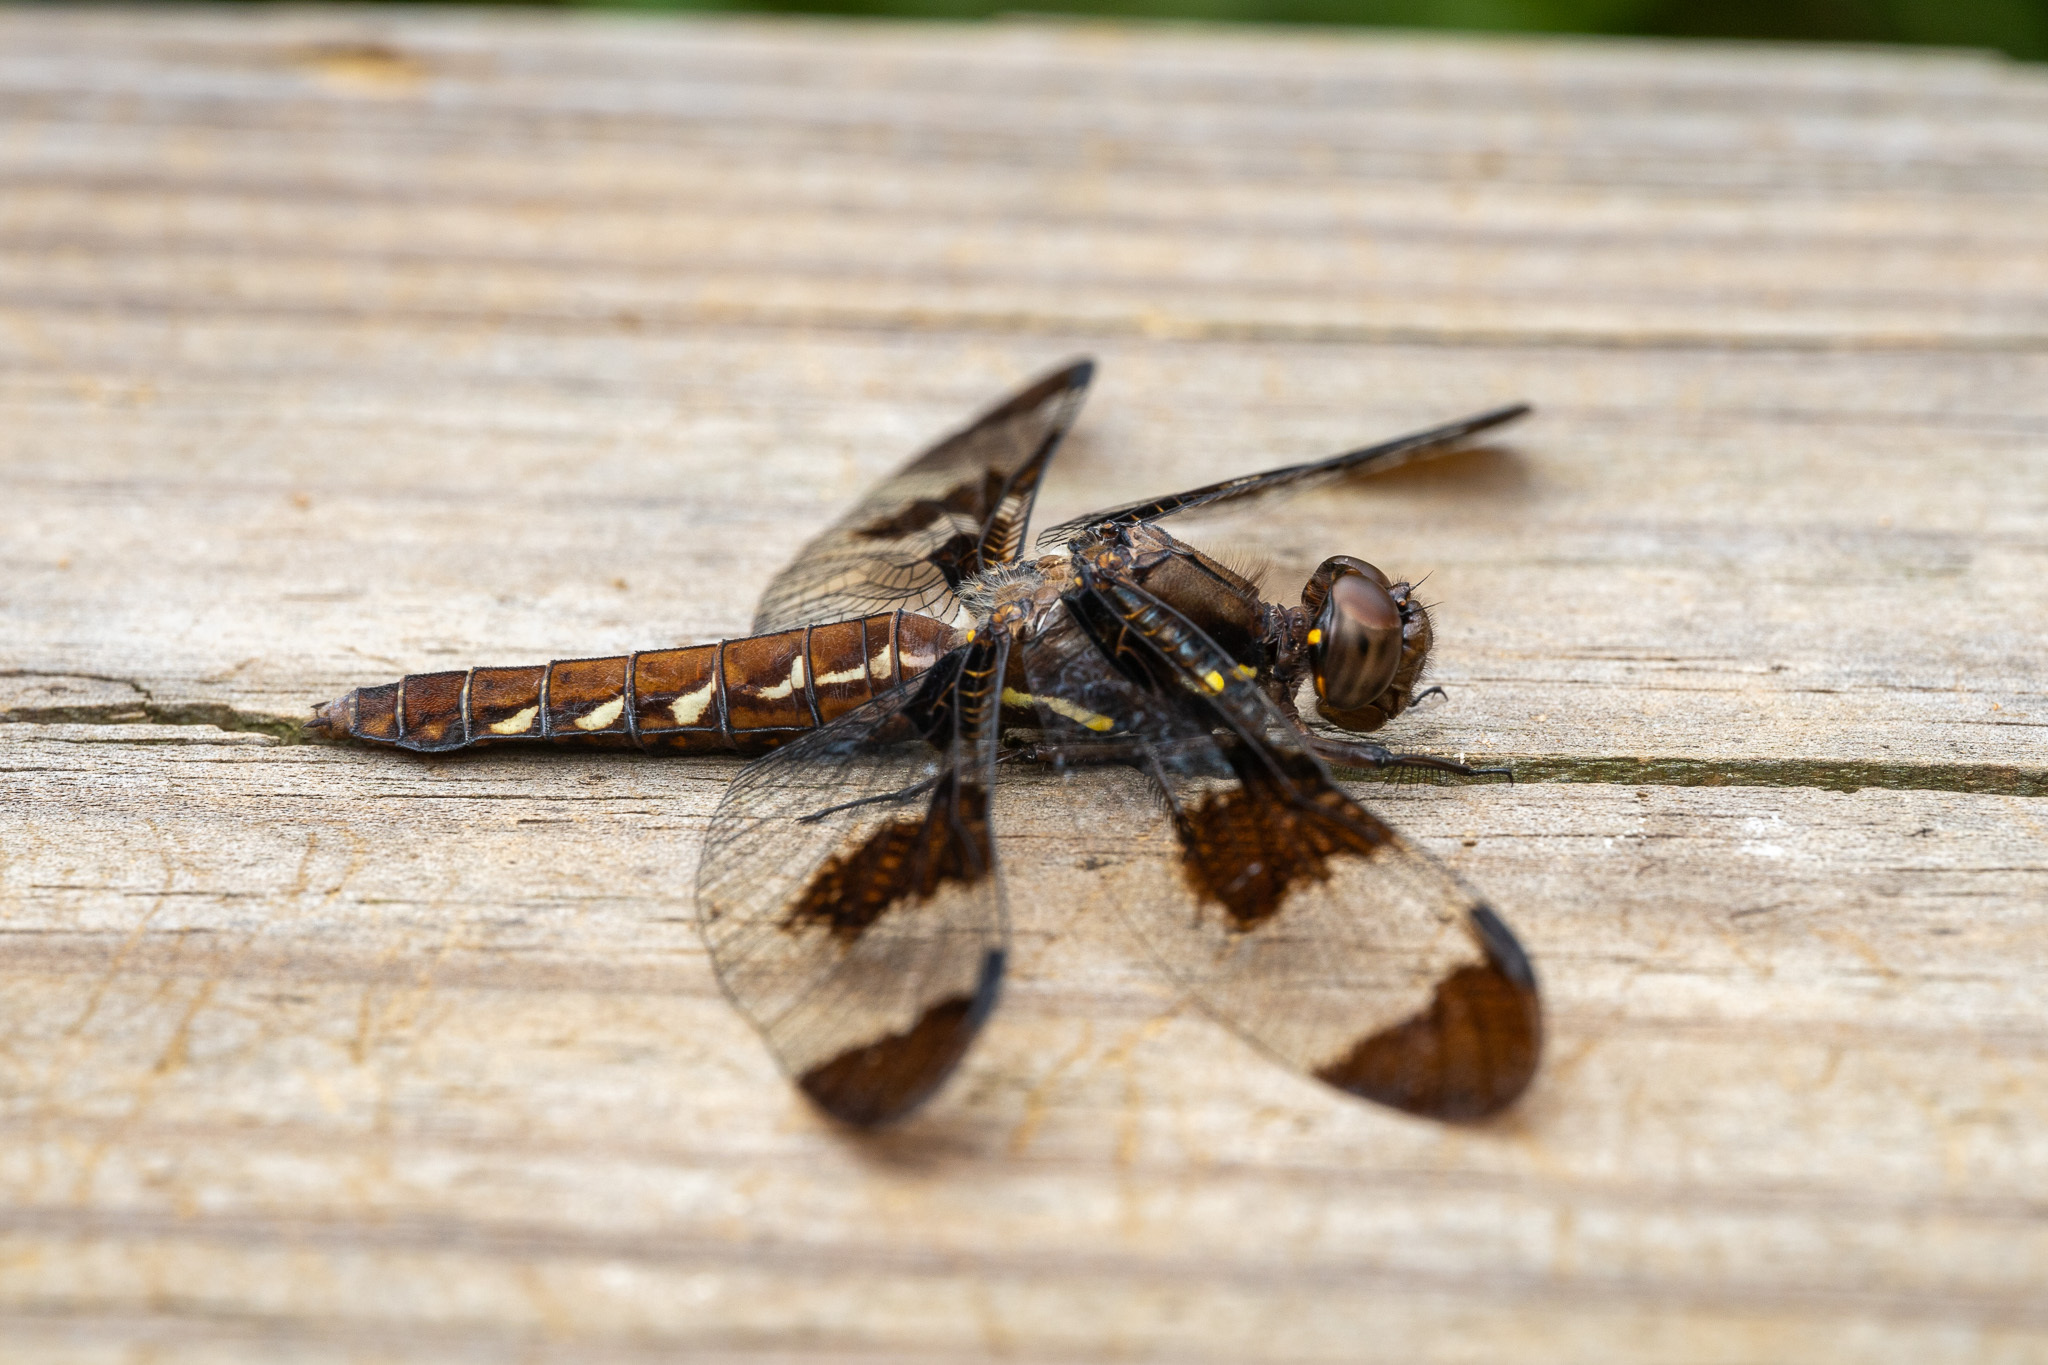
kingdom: Animalia
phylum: Arthropoda
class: Insecta
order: Odonata
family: Libellulidae
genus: Plathemis
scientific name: Plathemis lydia
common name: Common whitetail
